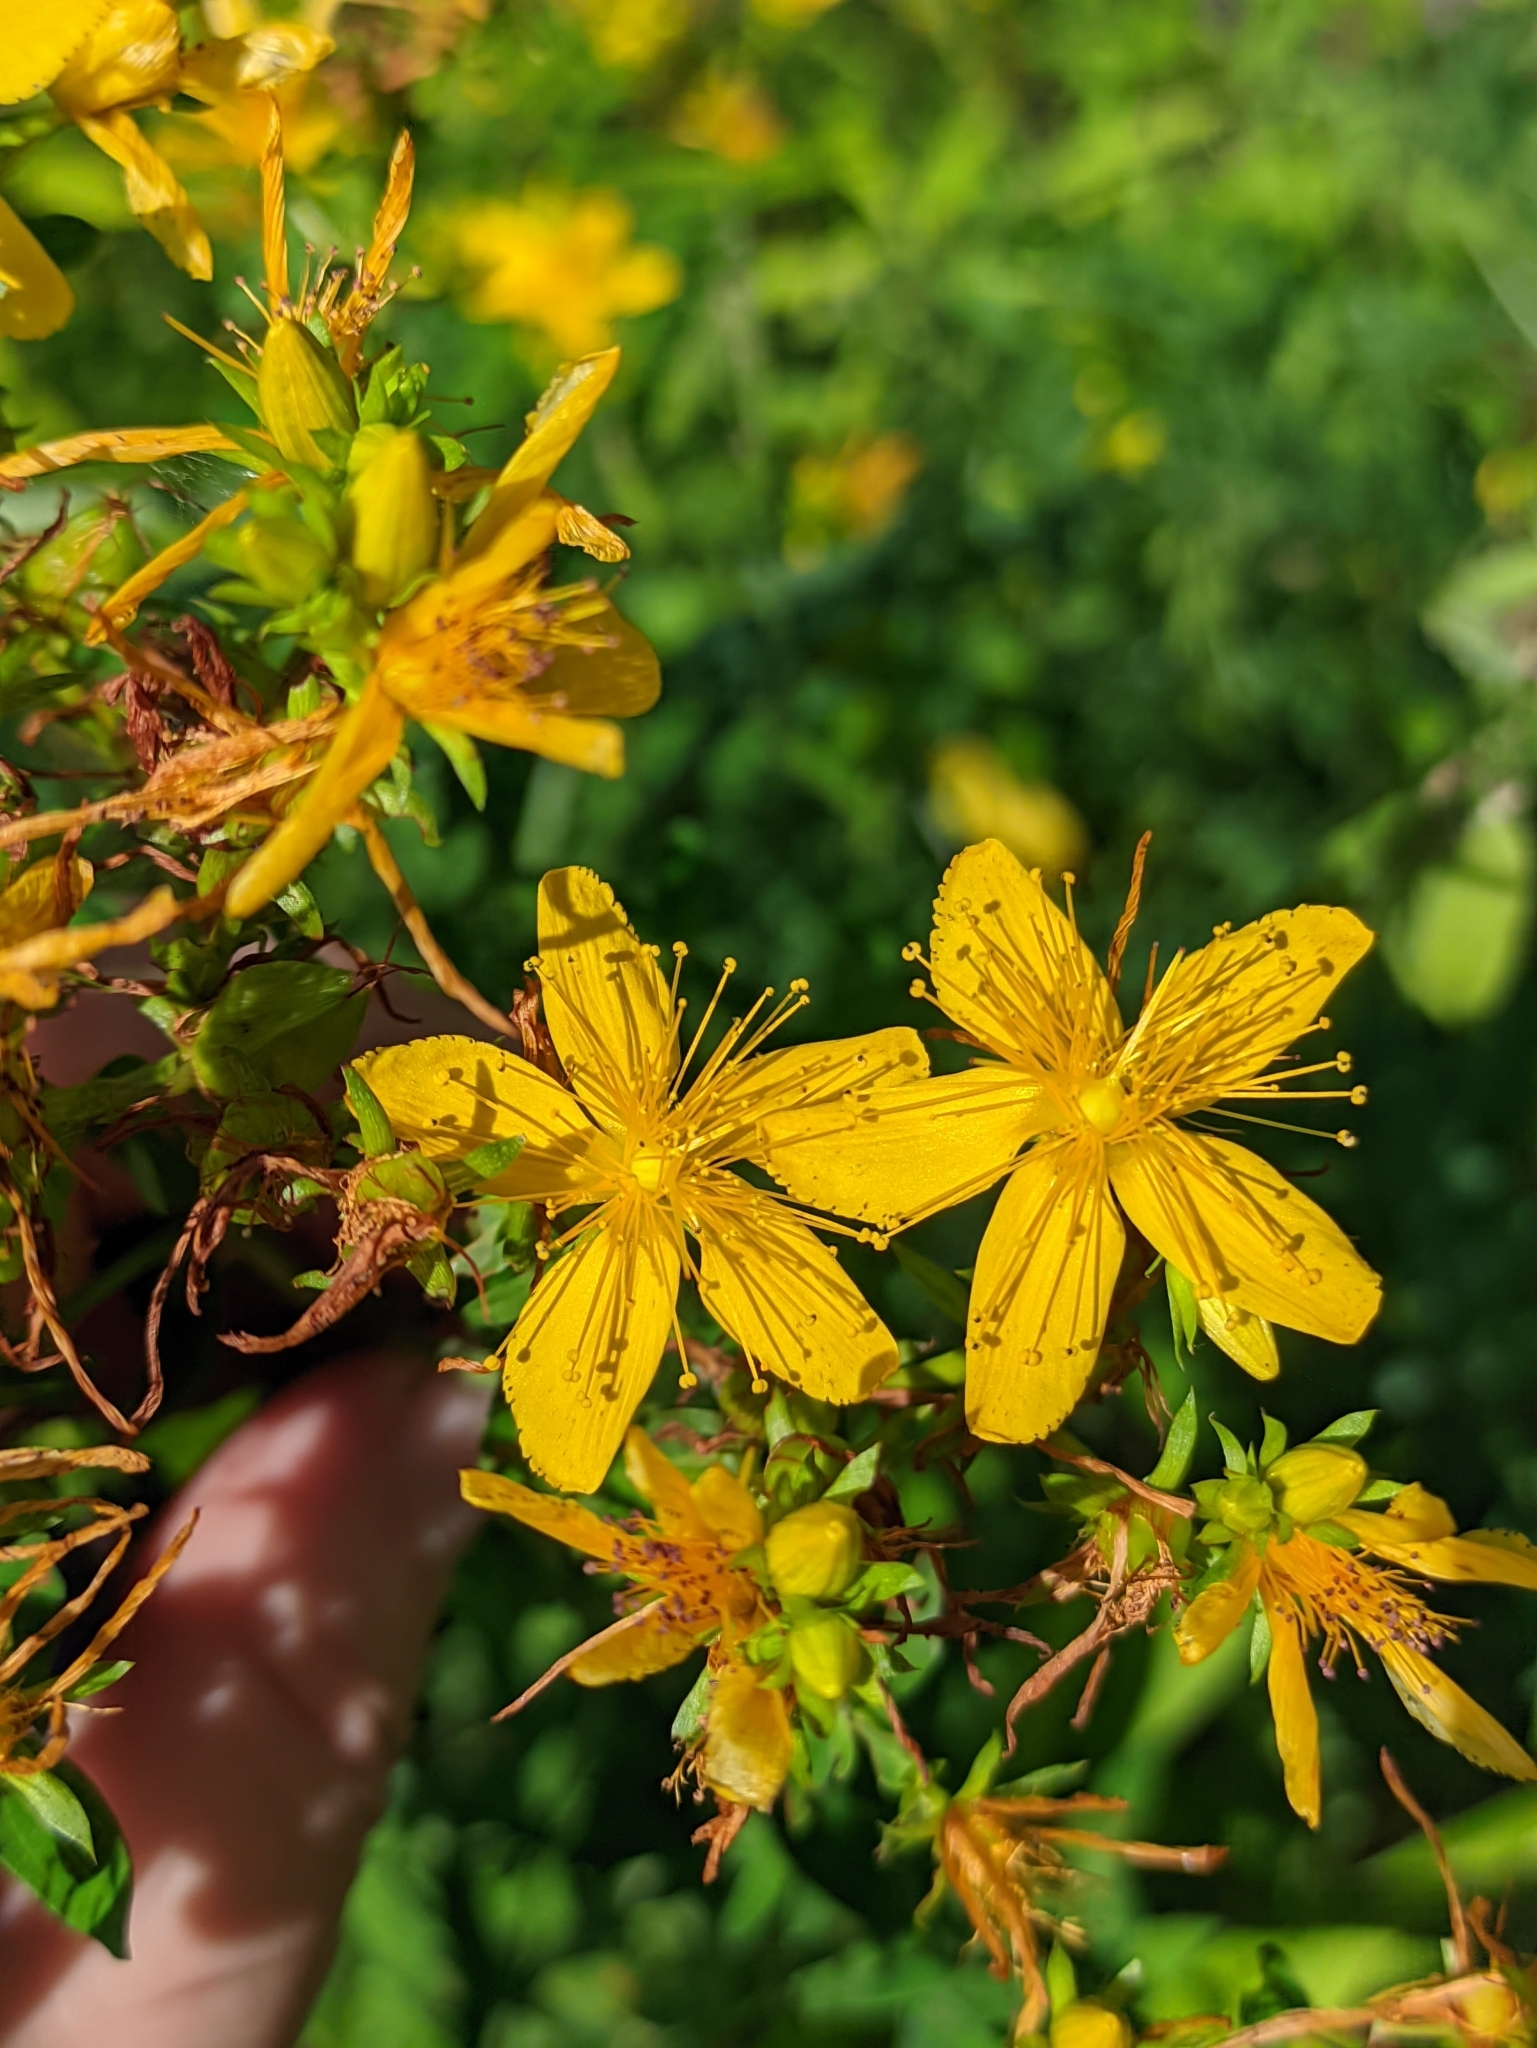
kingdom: Plantae
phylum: Tracheophyta
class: Magnoliopsida
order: Malpighiales
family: Hypericaceae
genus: Hypericum
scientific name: Hypericum perforatum
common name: Common st. johnswort
